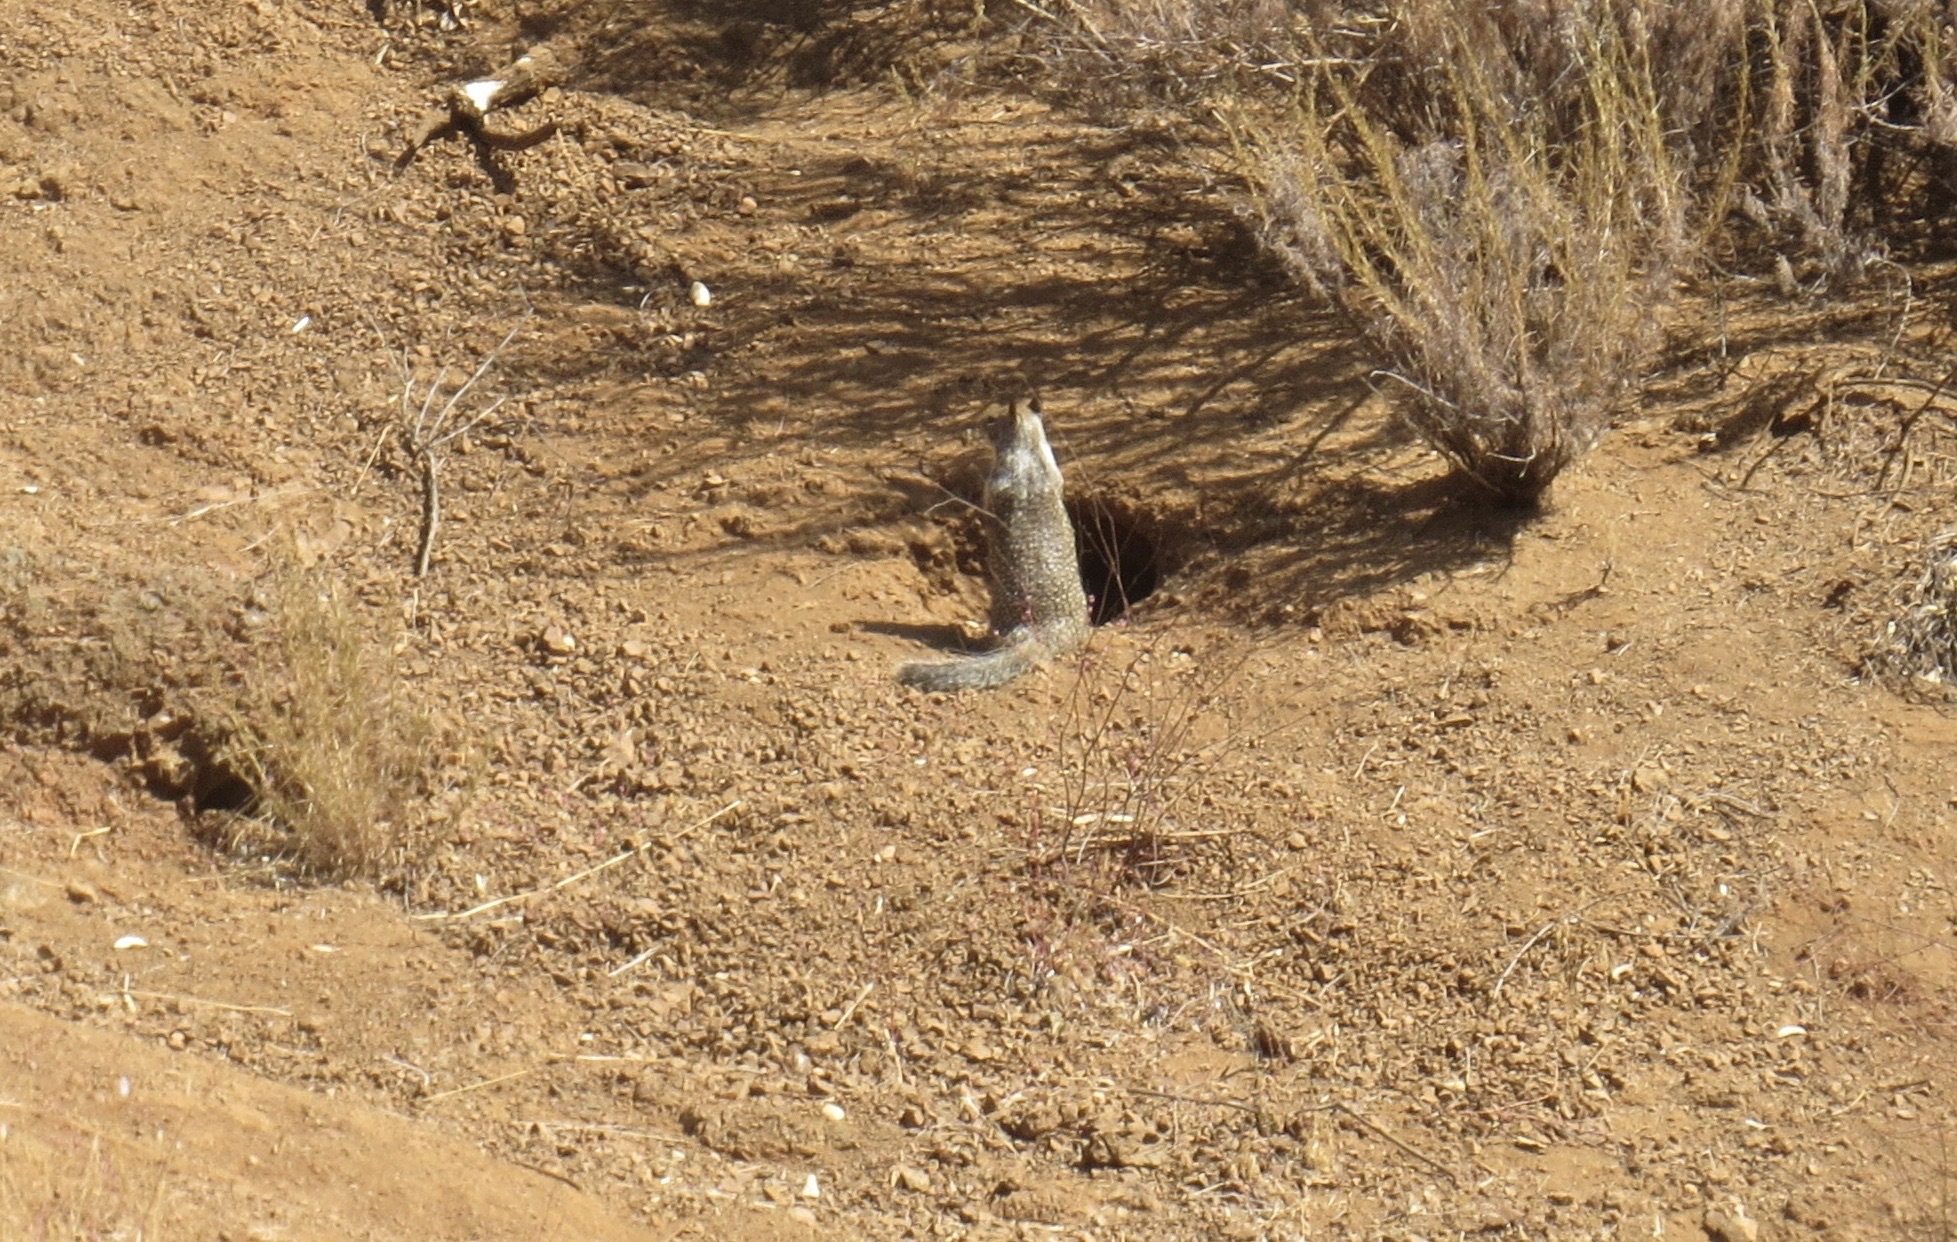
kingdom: Animalia
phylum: Chordata
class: Mammalia
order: Rodentia
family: Sciuridae
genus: Otospermophilus
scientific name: Otospermophilus beecheyi
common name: California ground squirrel
